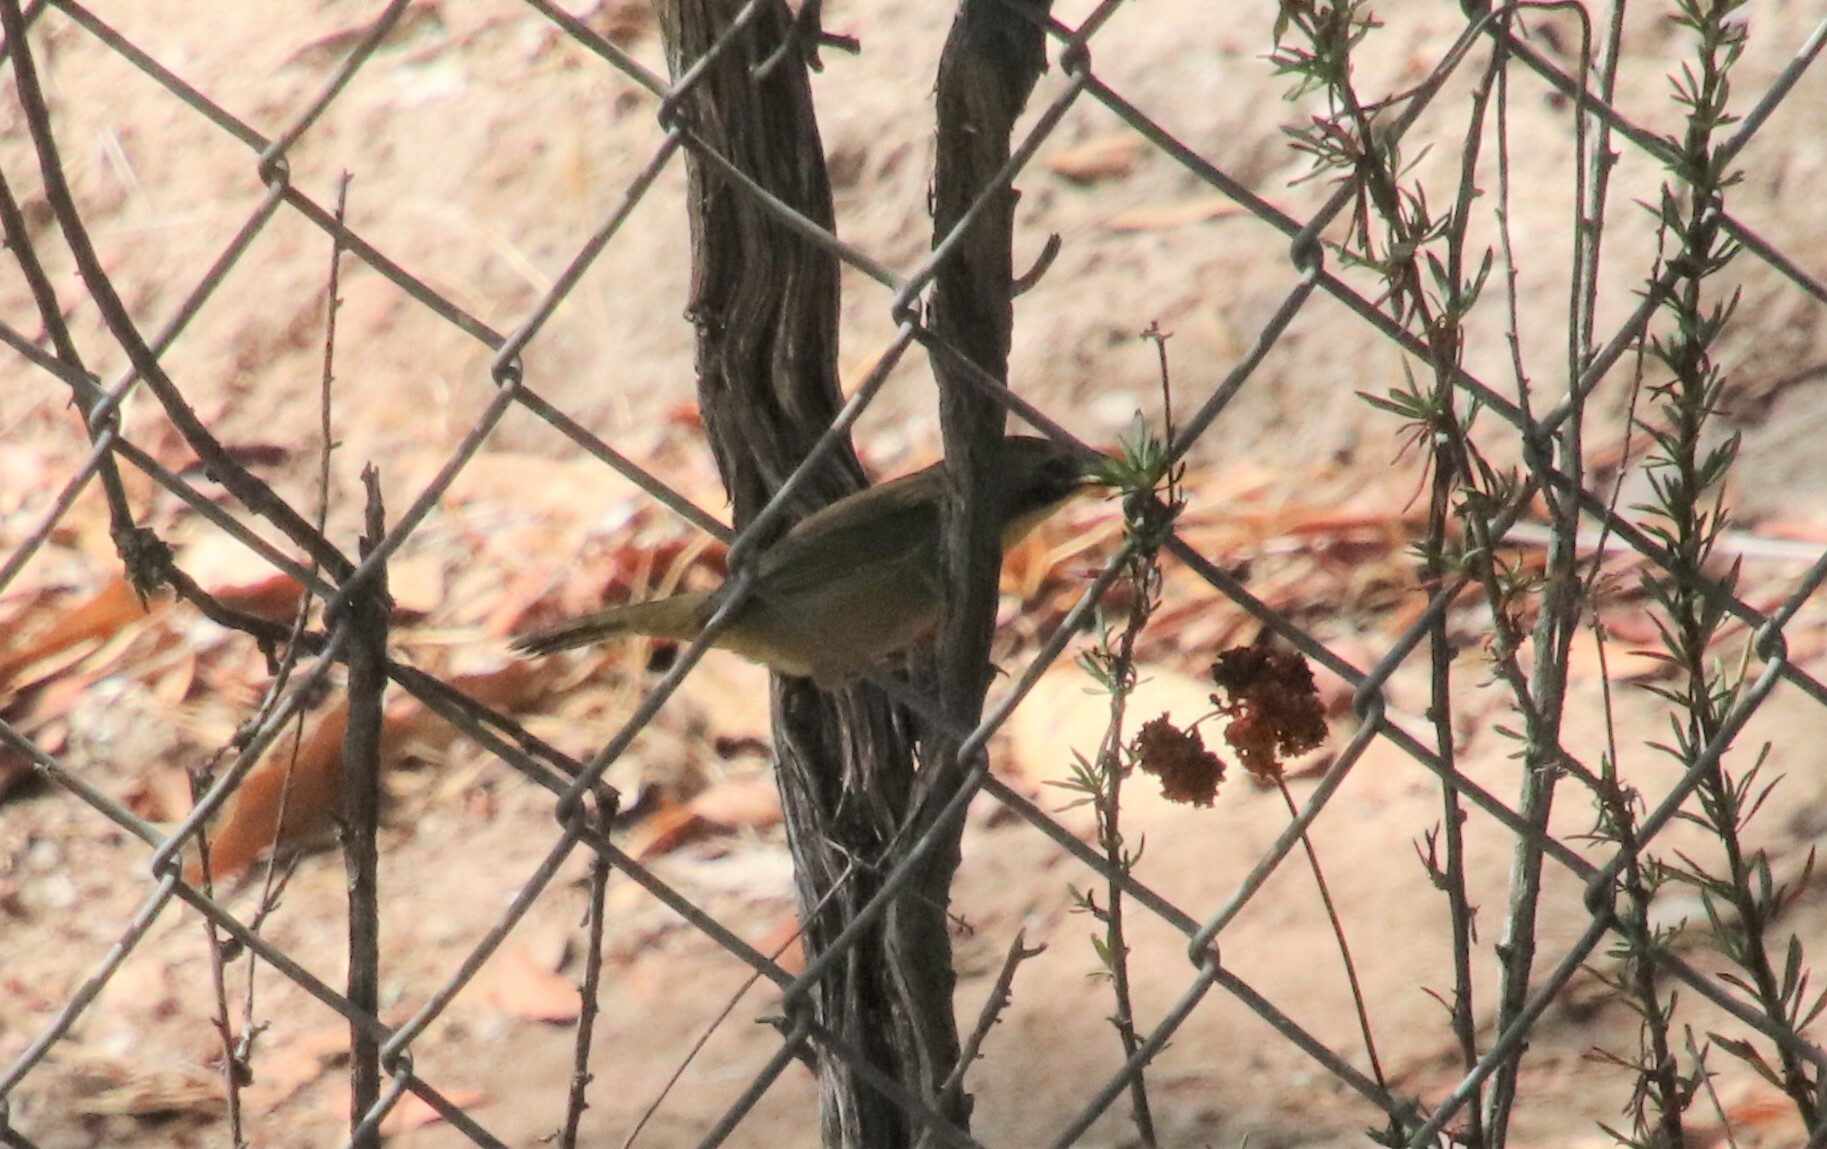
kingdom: Animalia
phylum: Chordata
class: Aves
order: Passeriformes
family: Parulidae
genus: Geothlypis
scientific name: Geothlypis trichas
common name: Common yellowthroat
